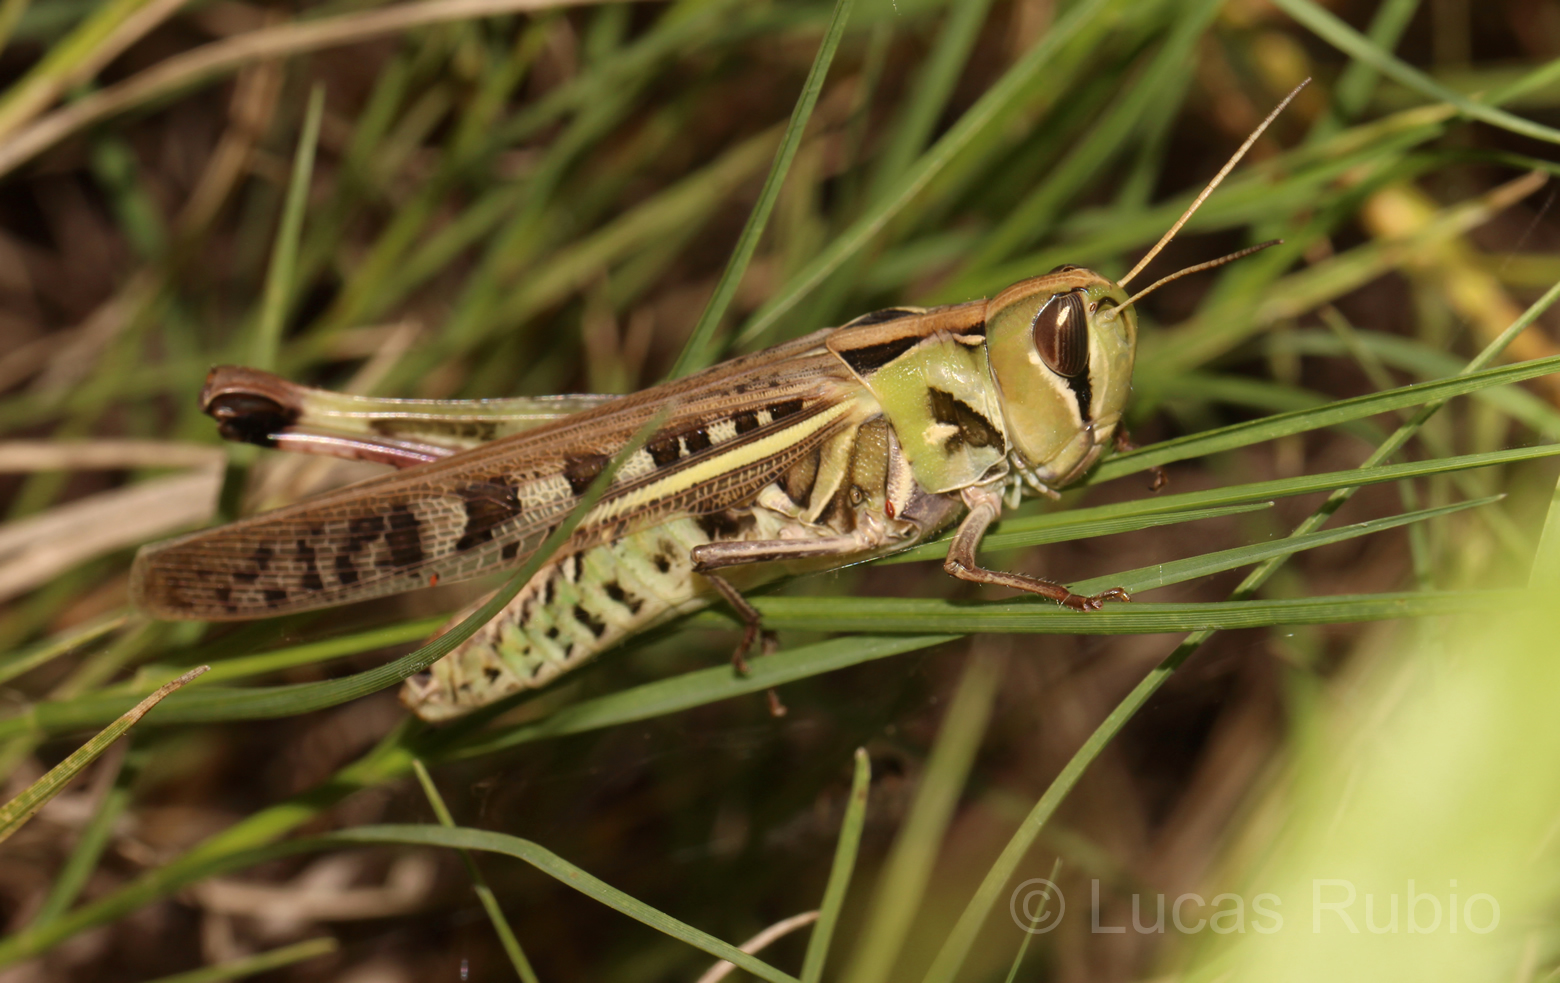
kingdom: Animalia
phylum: Arthropoda
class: Insecta
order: Orthoptera
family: Acrididae
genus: Rhammatocerus
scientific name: Rhammatocerus pictus
